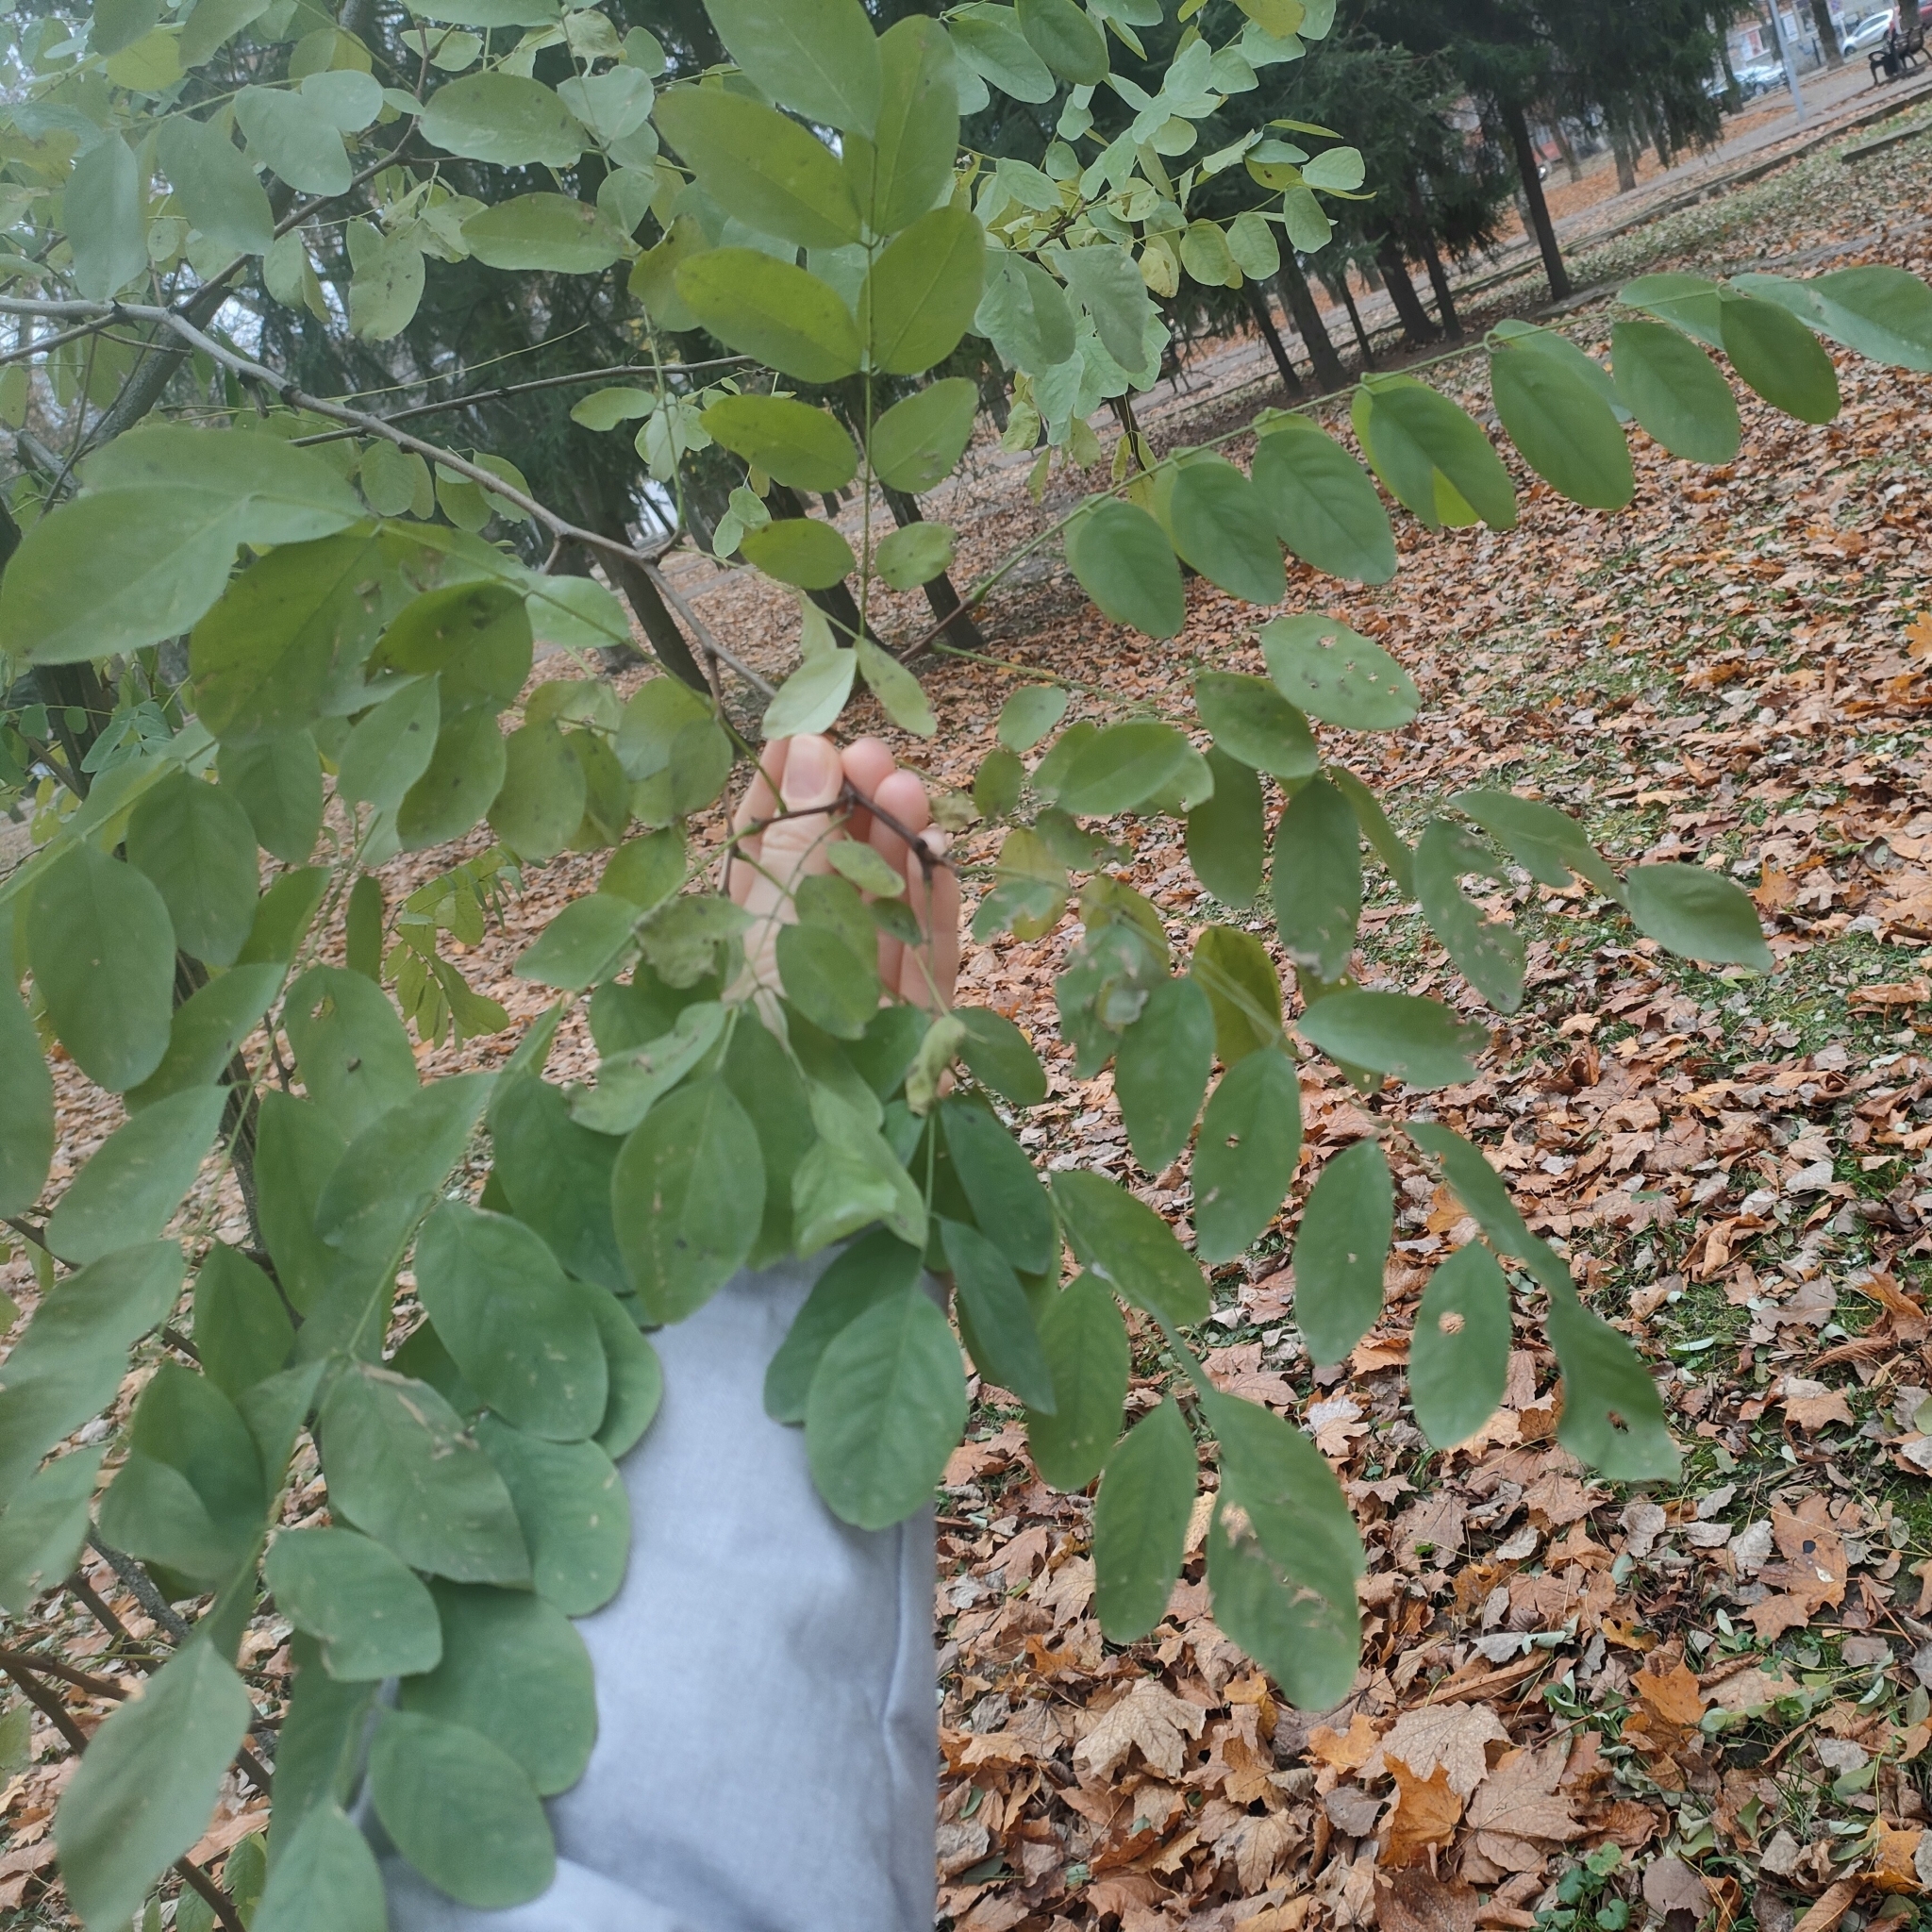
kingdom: Plantae
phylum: Tracheophyta
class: Magnoliopsida
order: Fabales
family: Fabaceae
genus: Robinia
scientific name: Robinia pseudoacacia
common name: Black locust
